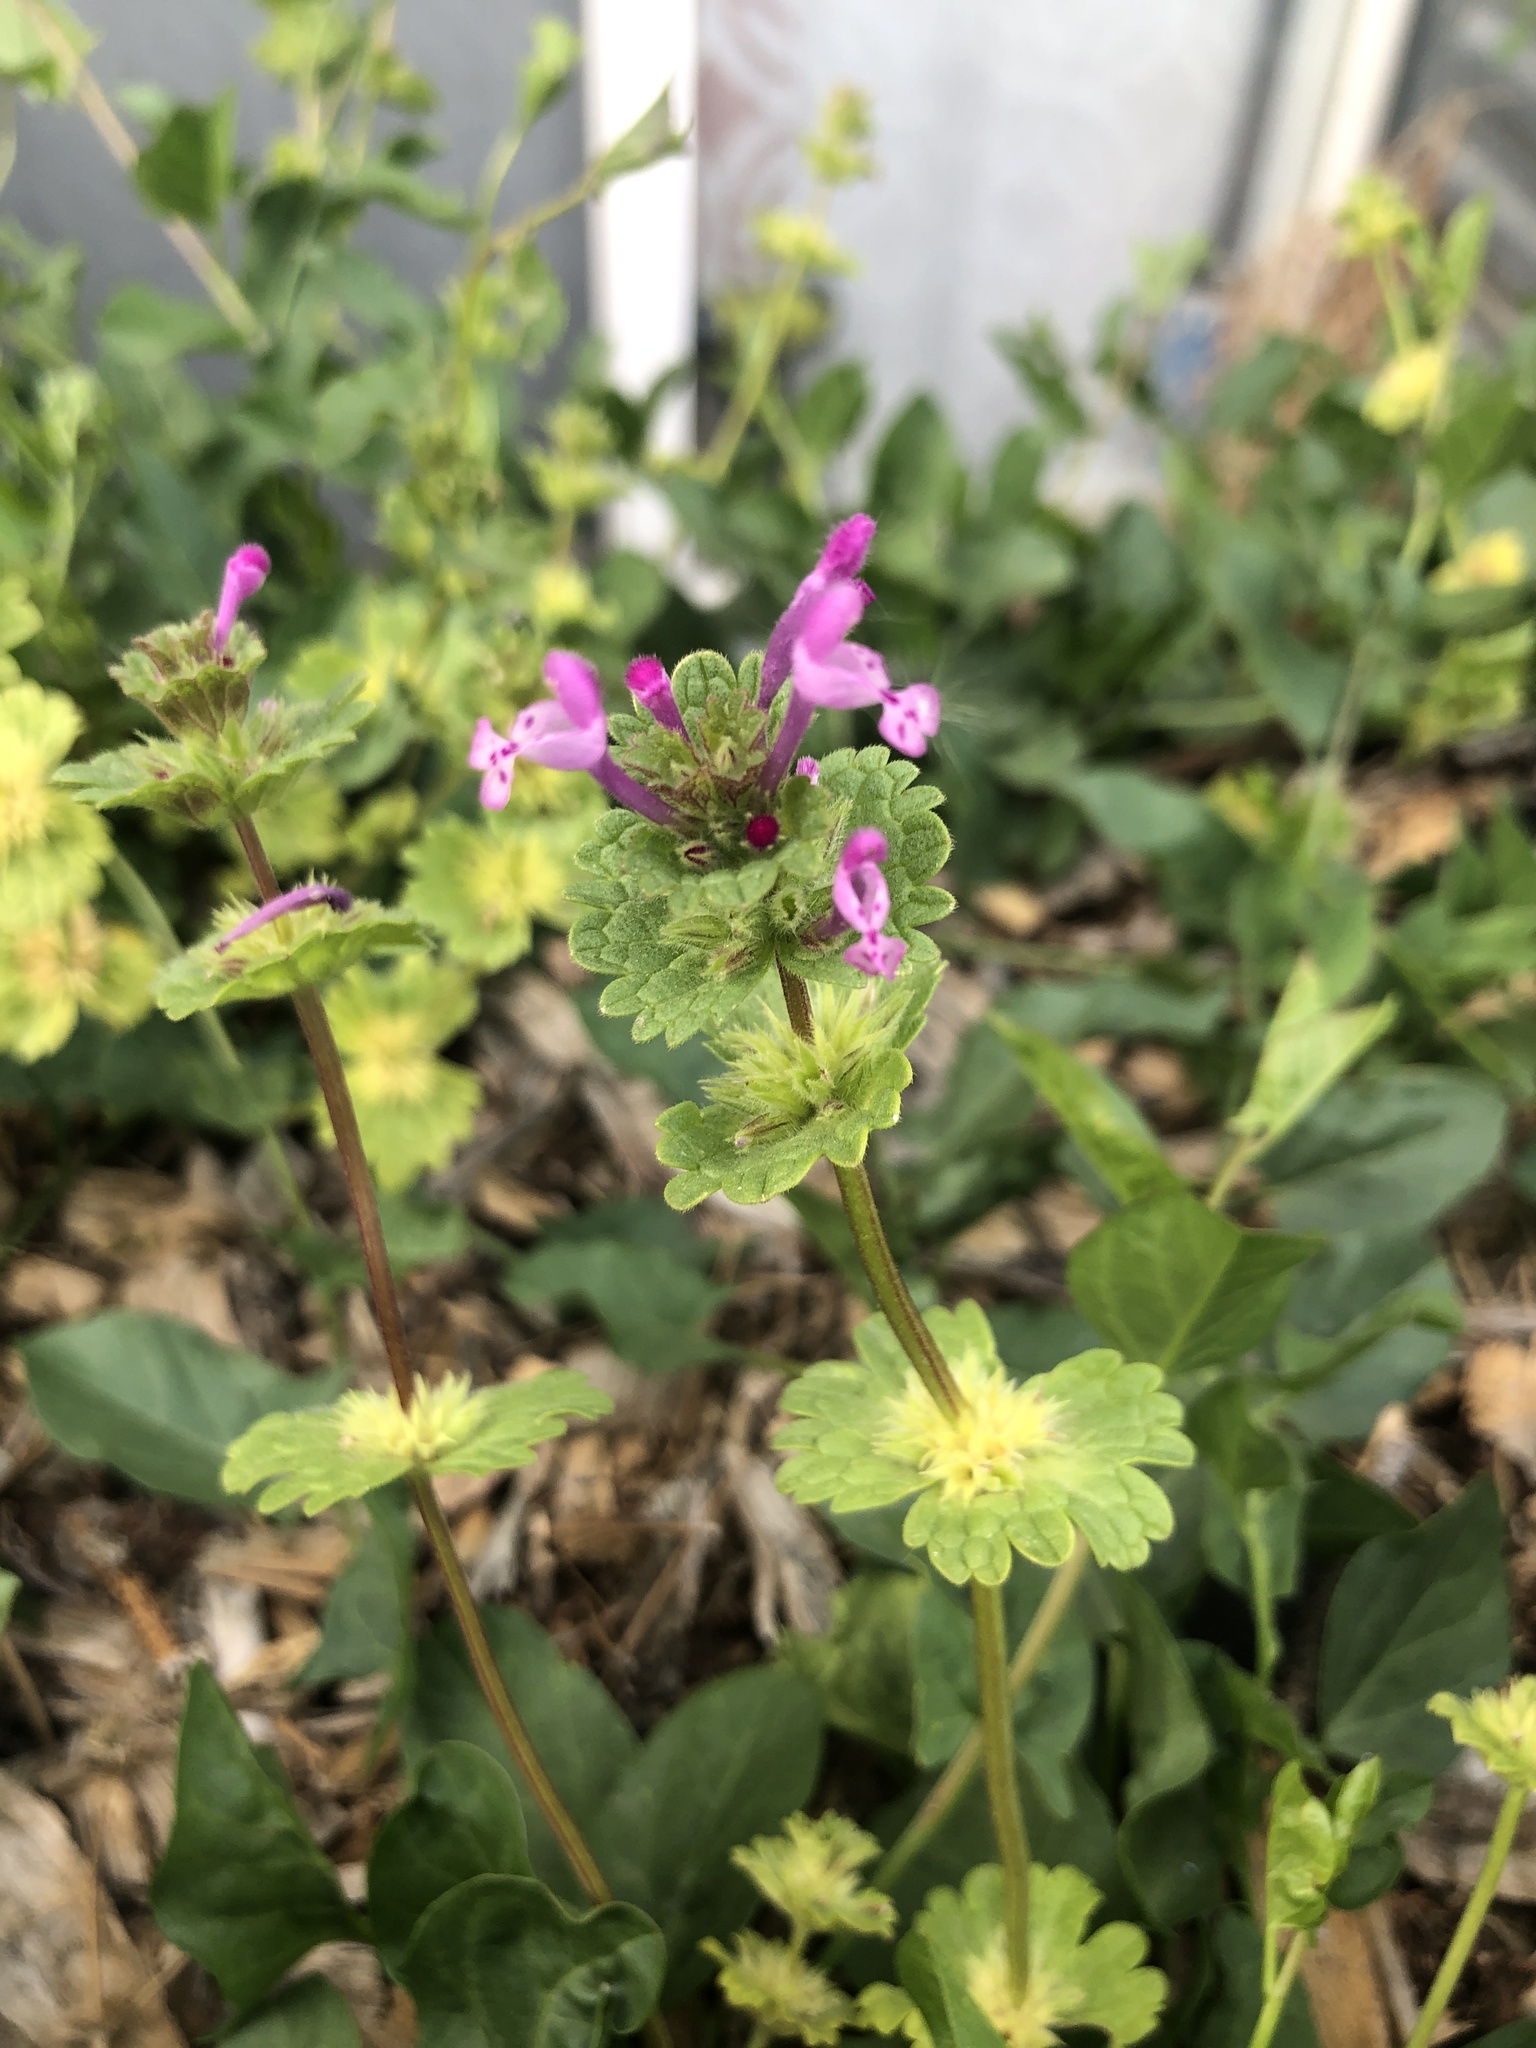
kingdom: Plantae
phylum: Tracheophyta
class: Magnoliopsida
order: Lamiales
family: Lamiaceae
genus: Lamium
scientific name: Lamium amplexicaule
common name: Henbit dead-nettle
